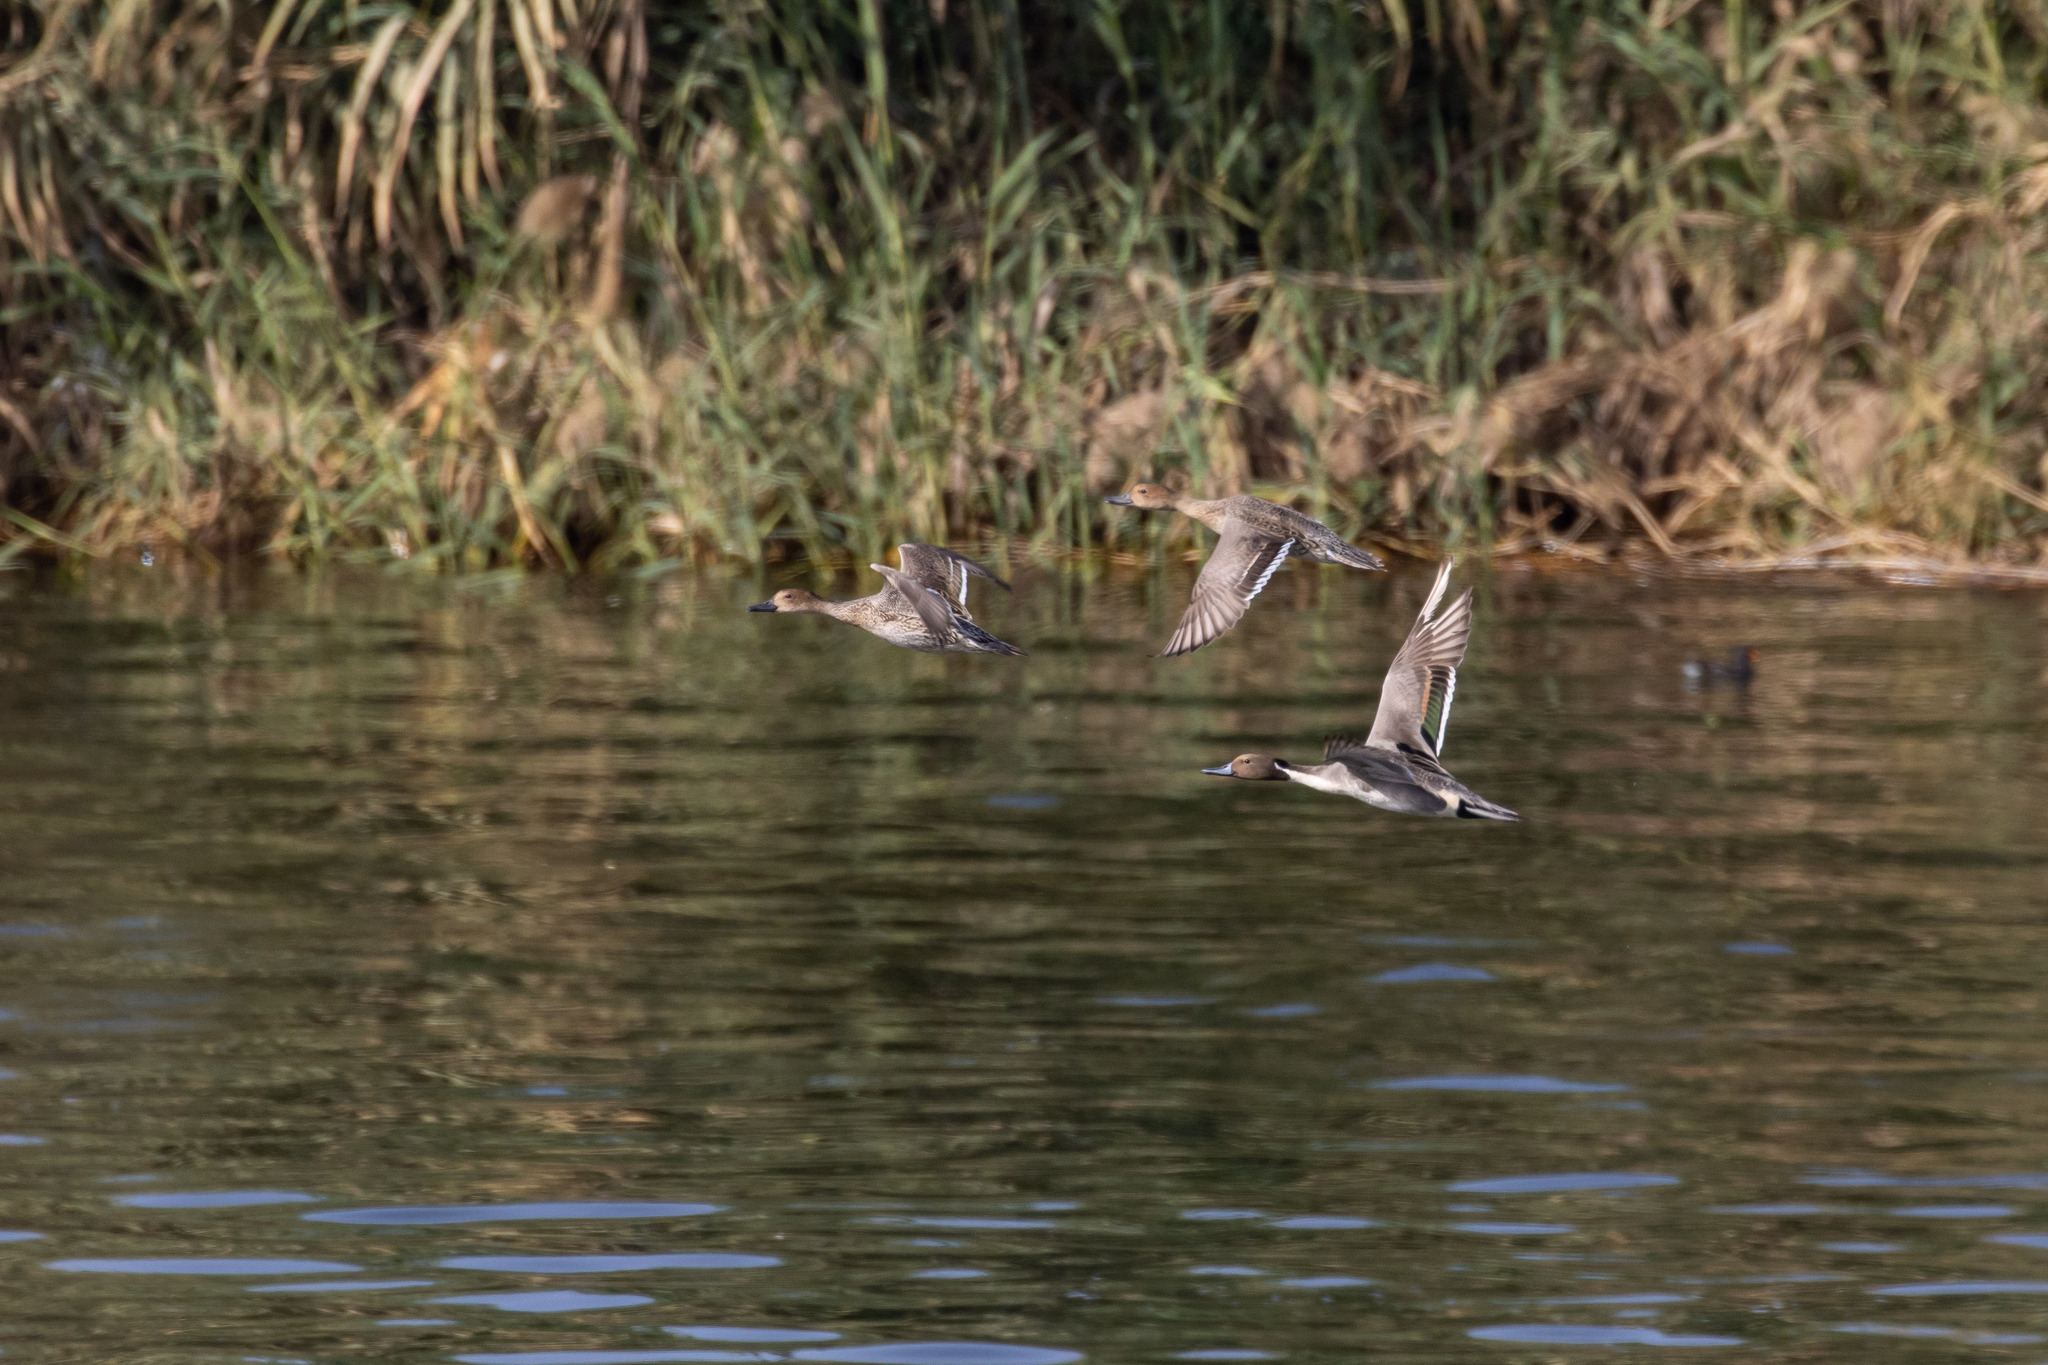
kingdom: Animalia
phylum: Chordata
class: Aves
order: Anseriformes
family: Anatidae
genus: Anas
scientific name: Anas acuta
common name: Northern pintail
